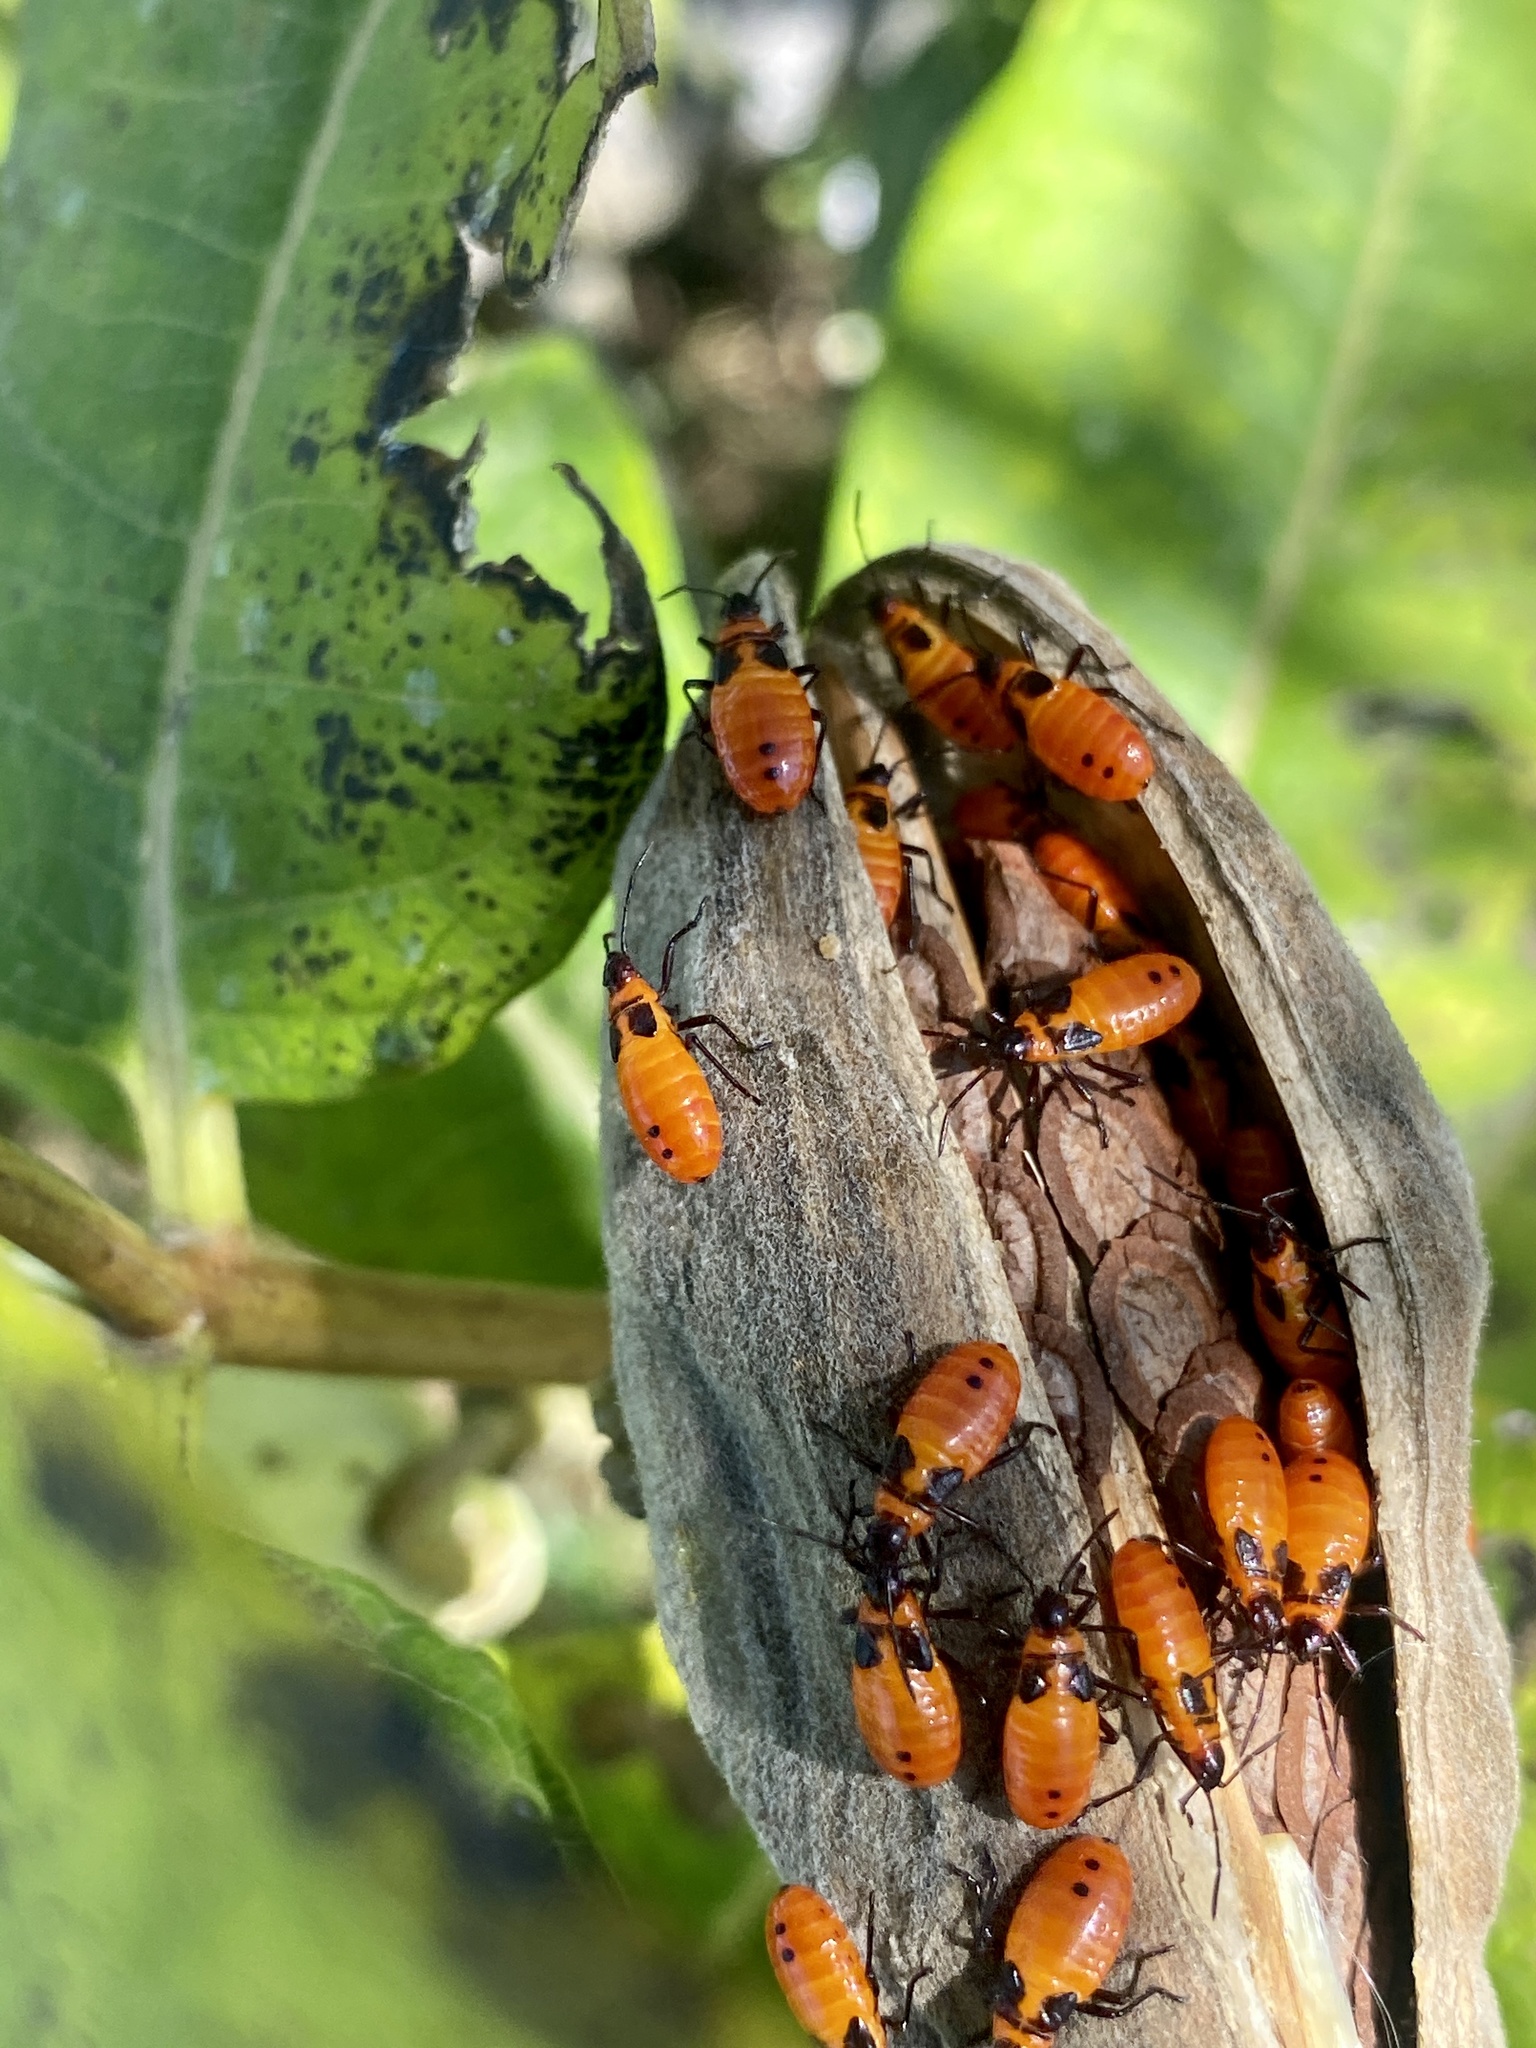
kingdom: Animalia
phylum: Arthropoda
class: Insecta
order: Hemiptera
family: Lygaeidae
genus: Oncopeltus
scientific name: Oncopeltus fasciatus
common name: Large milkweed bug
